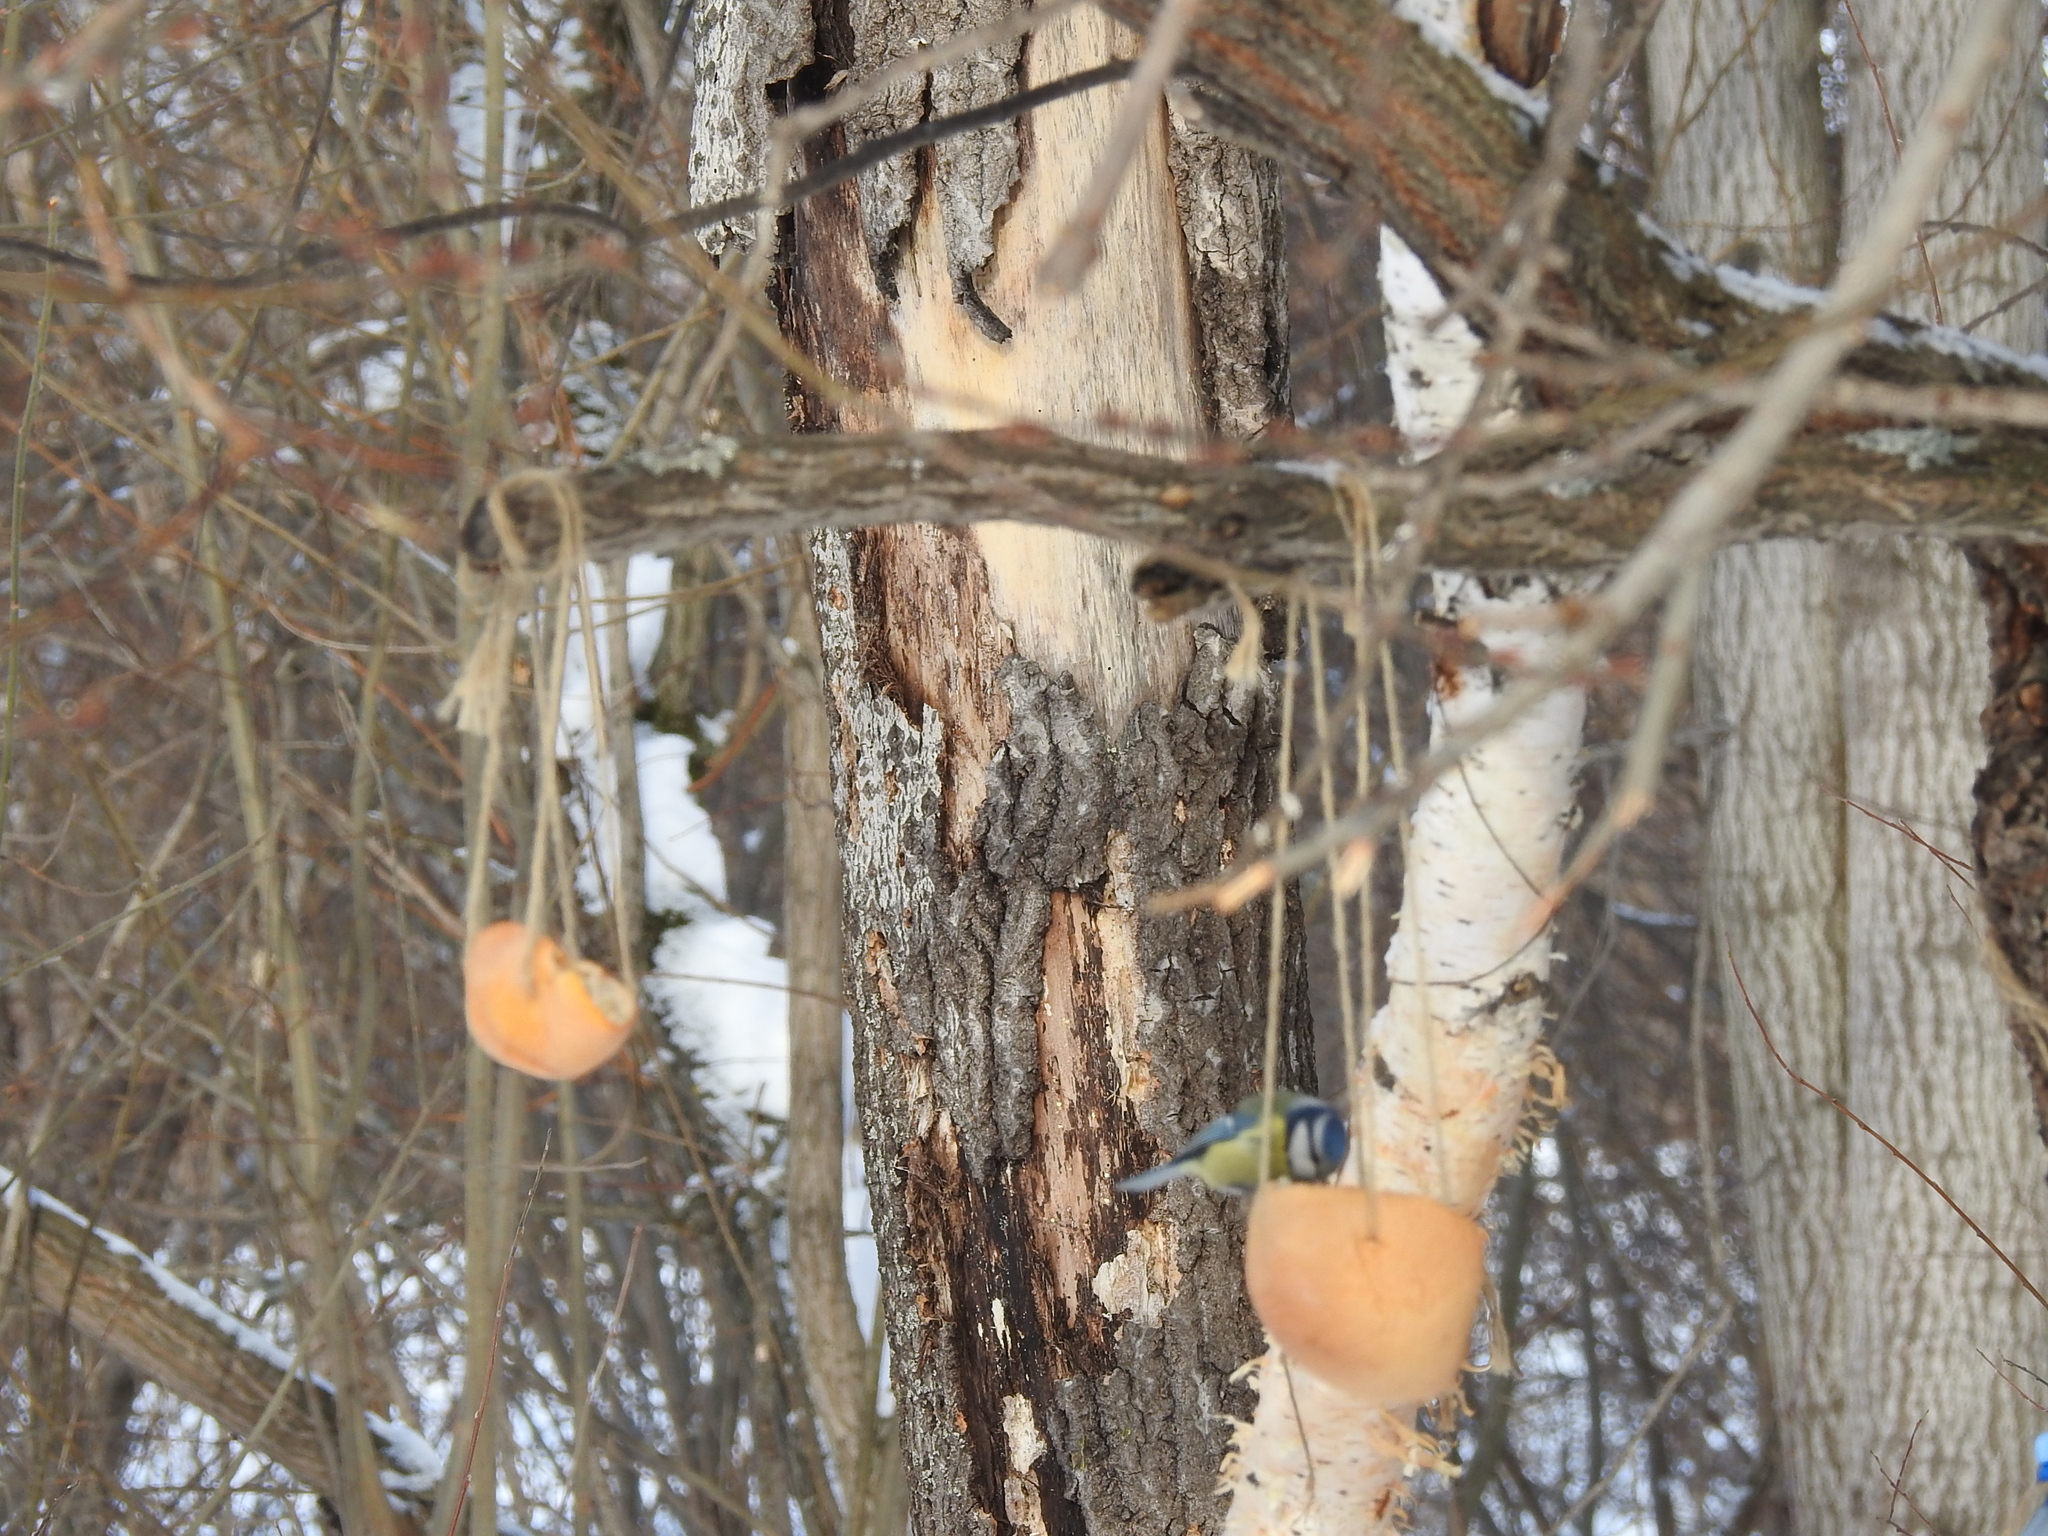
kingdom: Animalia
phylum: Chordata
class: Aves
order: Passeriformes
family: Paridae
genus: Cyanistes
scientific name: Cyanistes caeruleus
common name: Eurasian blue tit
